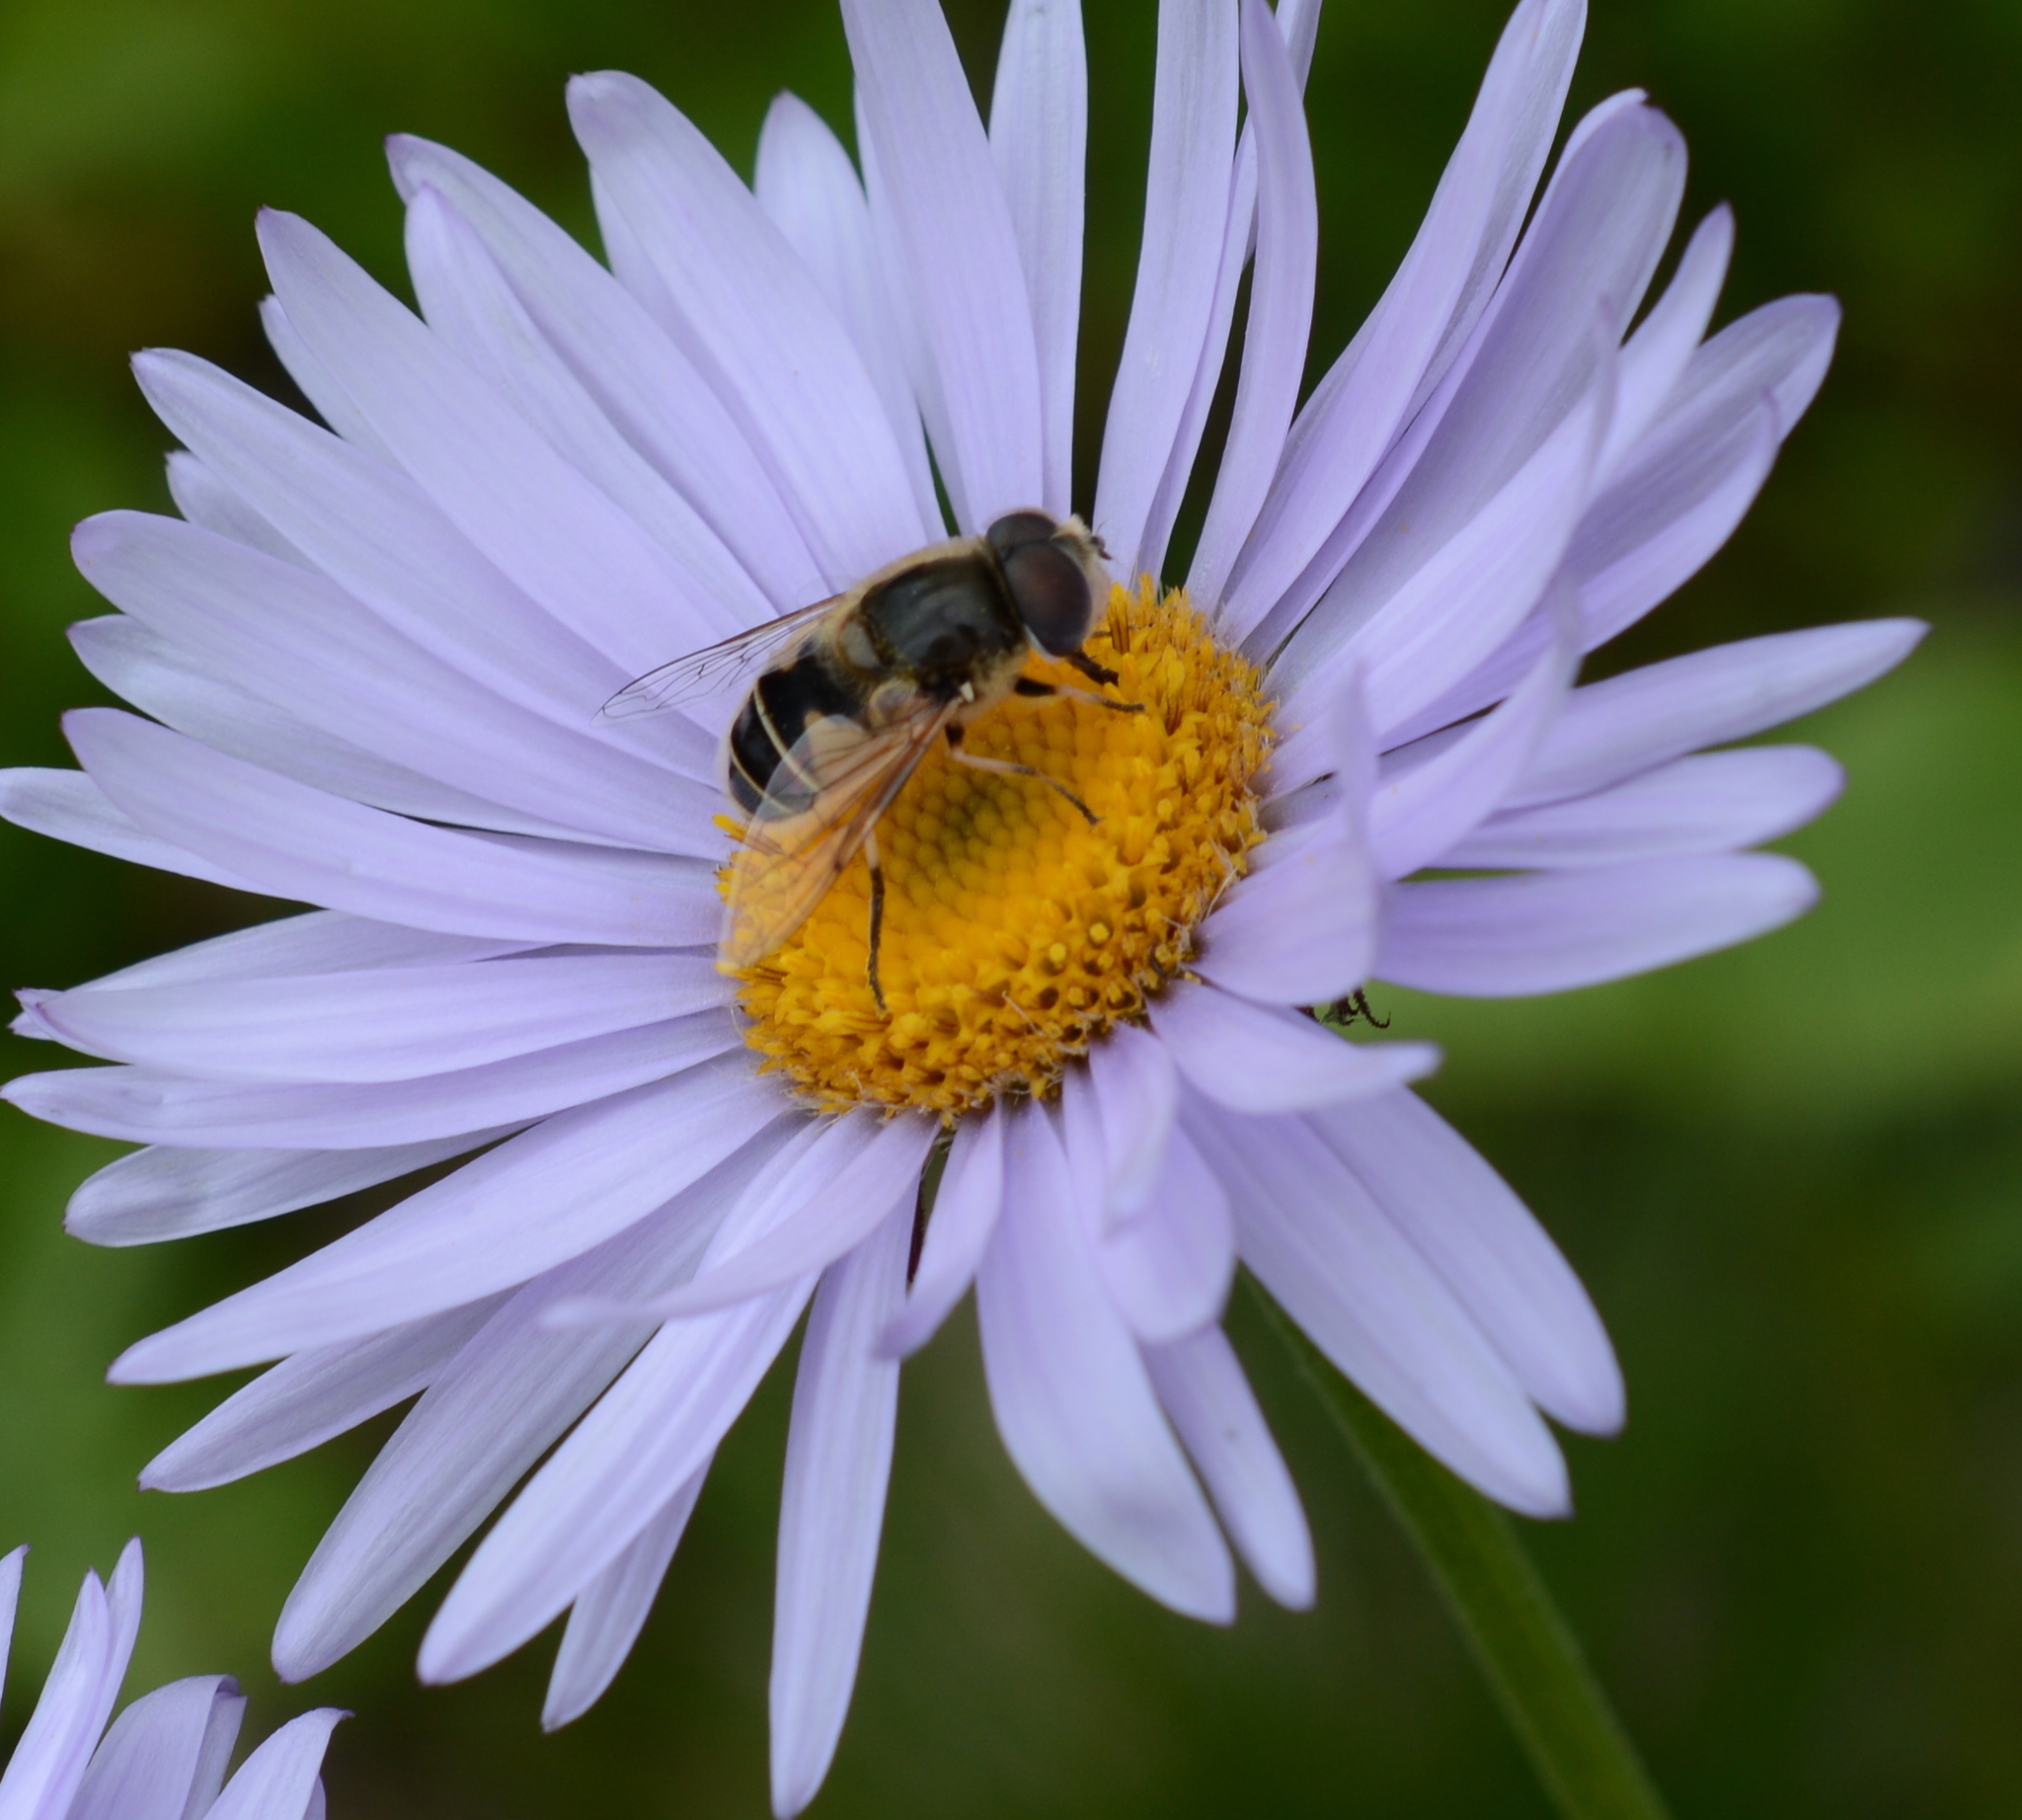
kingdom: Animalia
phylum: Arthropoda
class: Insecta
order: Diptera
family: Syrphidae
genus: Eristalis
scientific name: Eristalis arbustorum
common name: Hover fly
